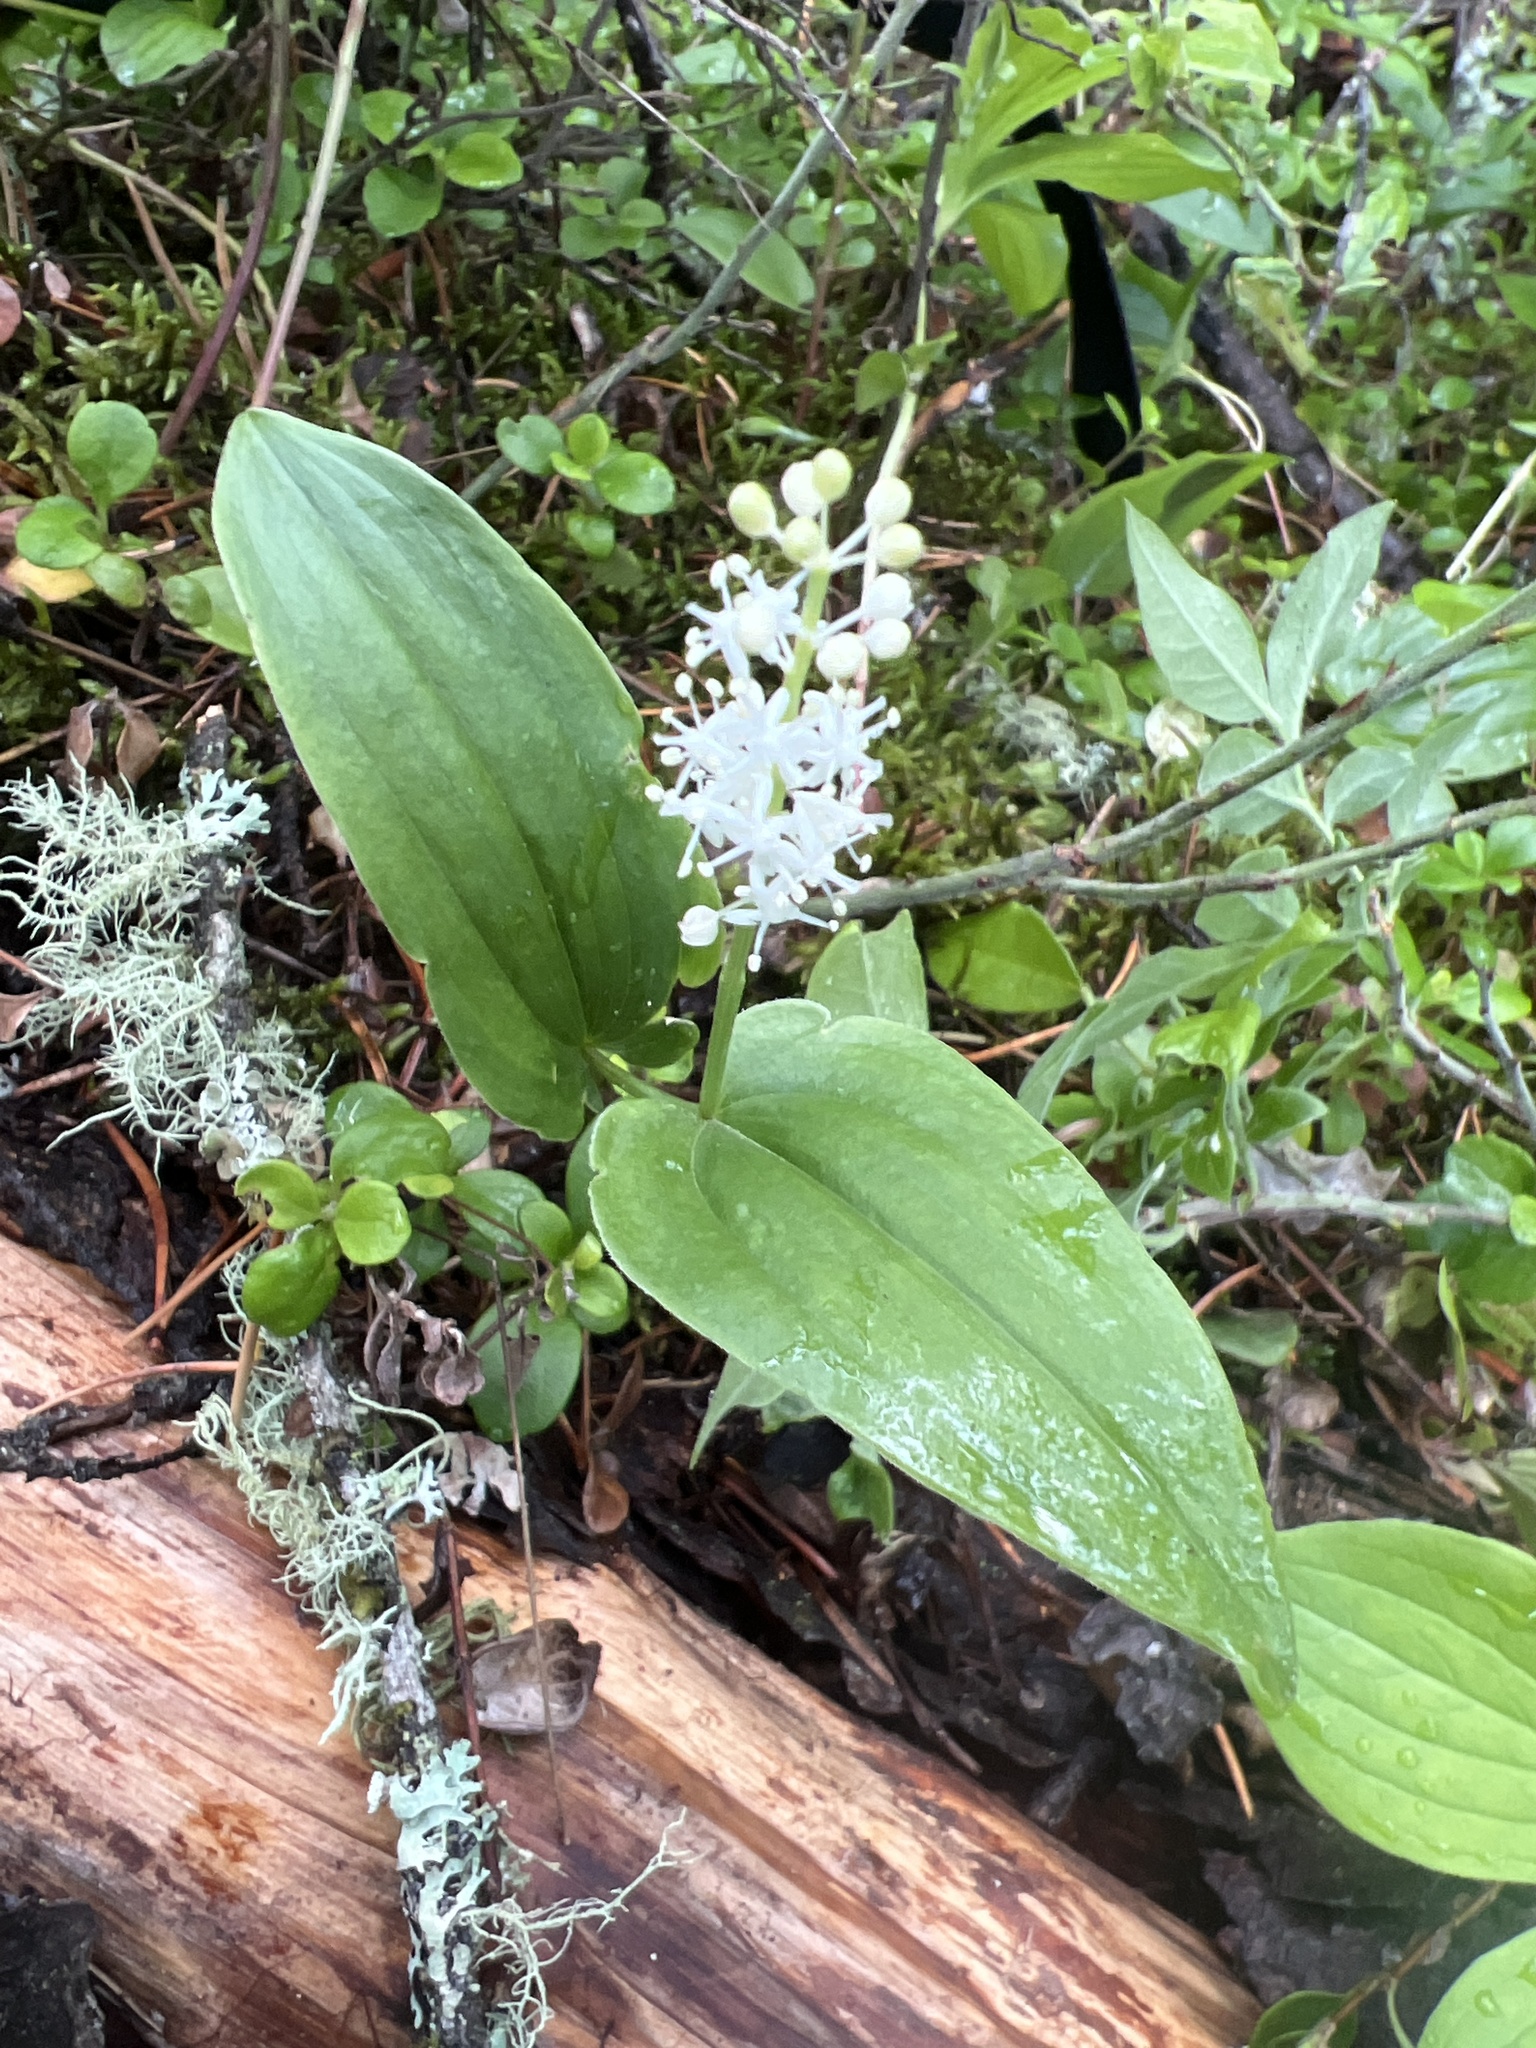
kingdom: Plantae
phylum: Tracheophyta
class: Liliopsida
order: Asparagales
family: Asparagaceae
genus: Maianthemum
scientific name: Maianthemum canadense
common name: False lily-of-the-valley
